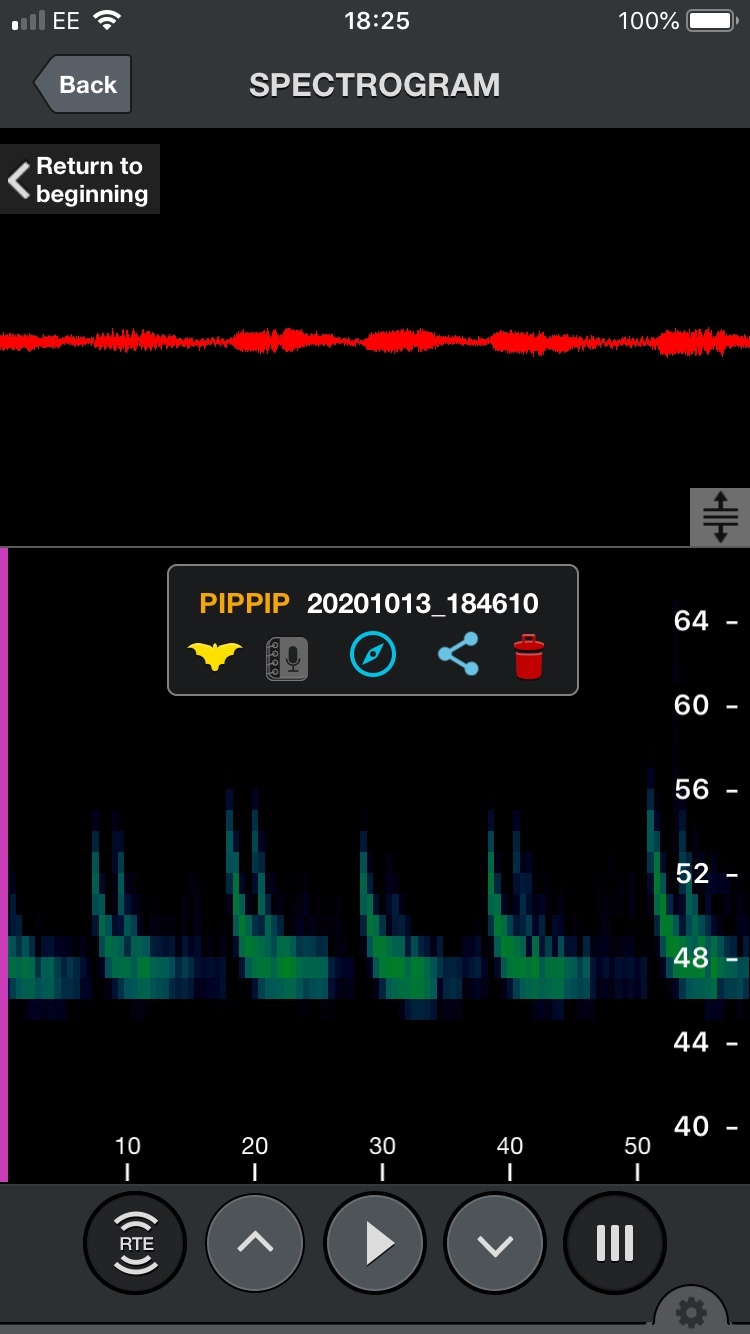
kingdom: Animalia
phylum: Chordata
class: Mammalia
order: Chiroptera
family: Vespertilionidae
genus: Pipistrellus
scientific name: Pipistrellus pipistrellus
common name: Common pipistrelle
